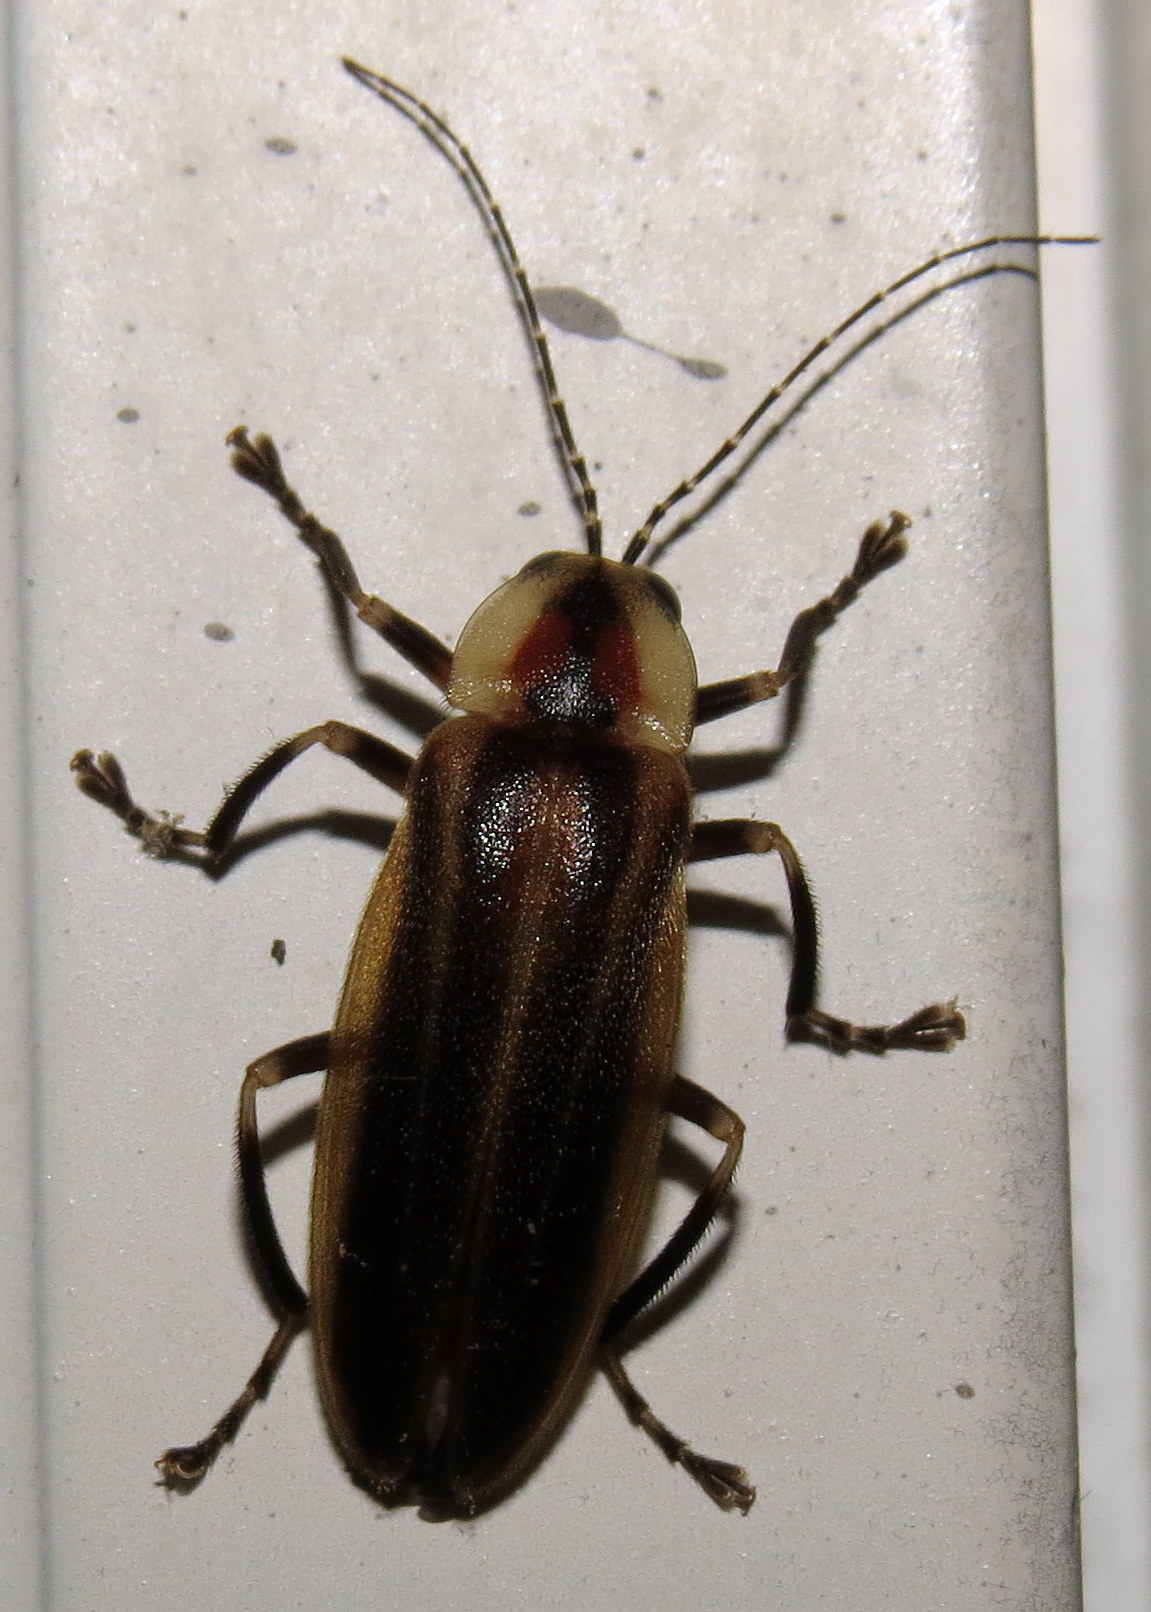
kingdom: Animalia
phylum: Arthropoda
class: Insecta
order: Coleoptera
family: Lampyridae
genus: Photuris
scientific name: Photuris
